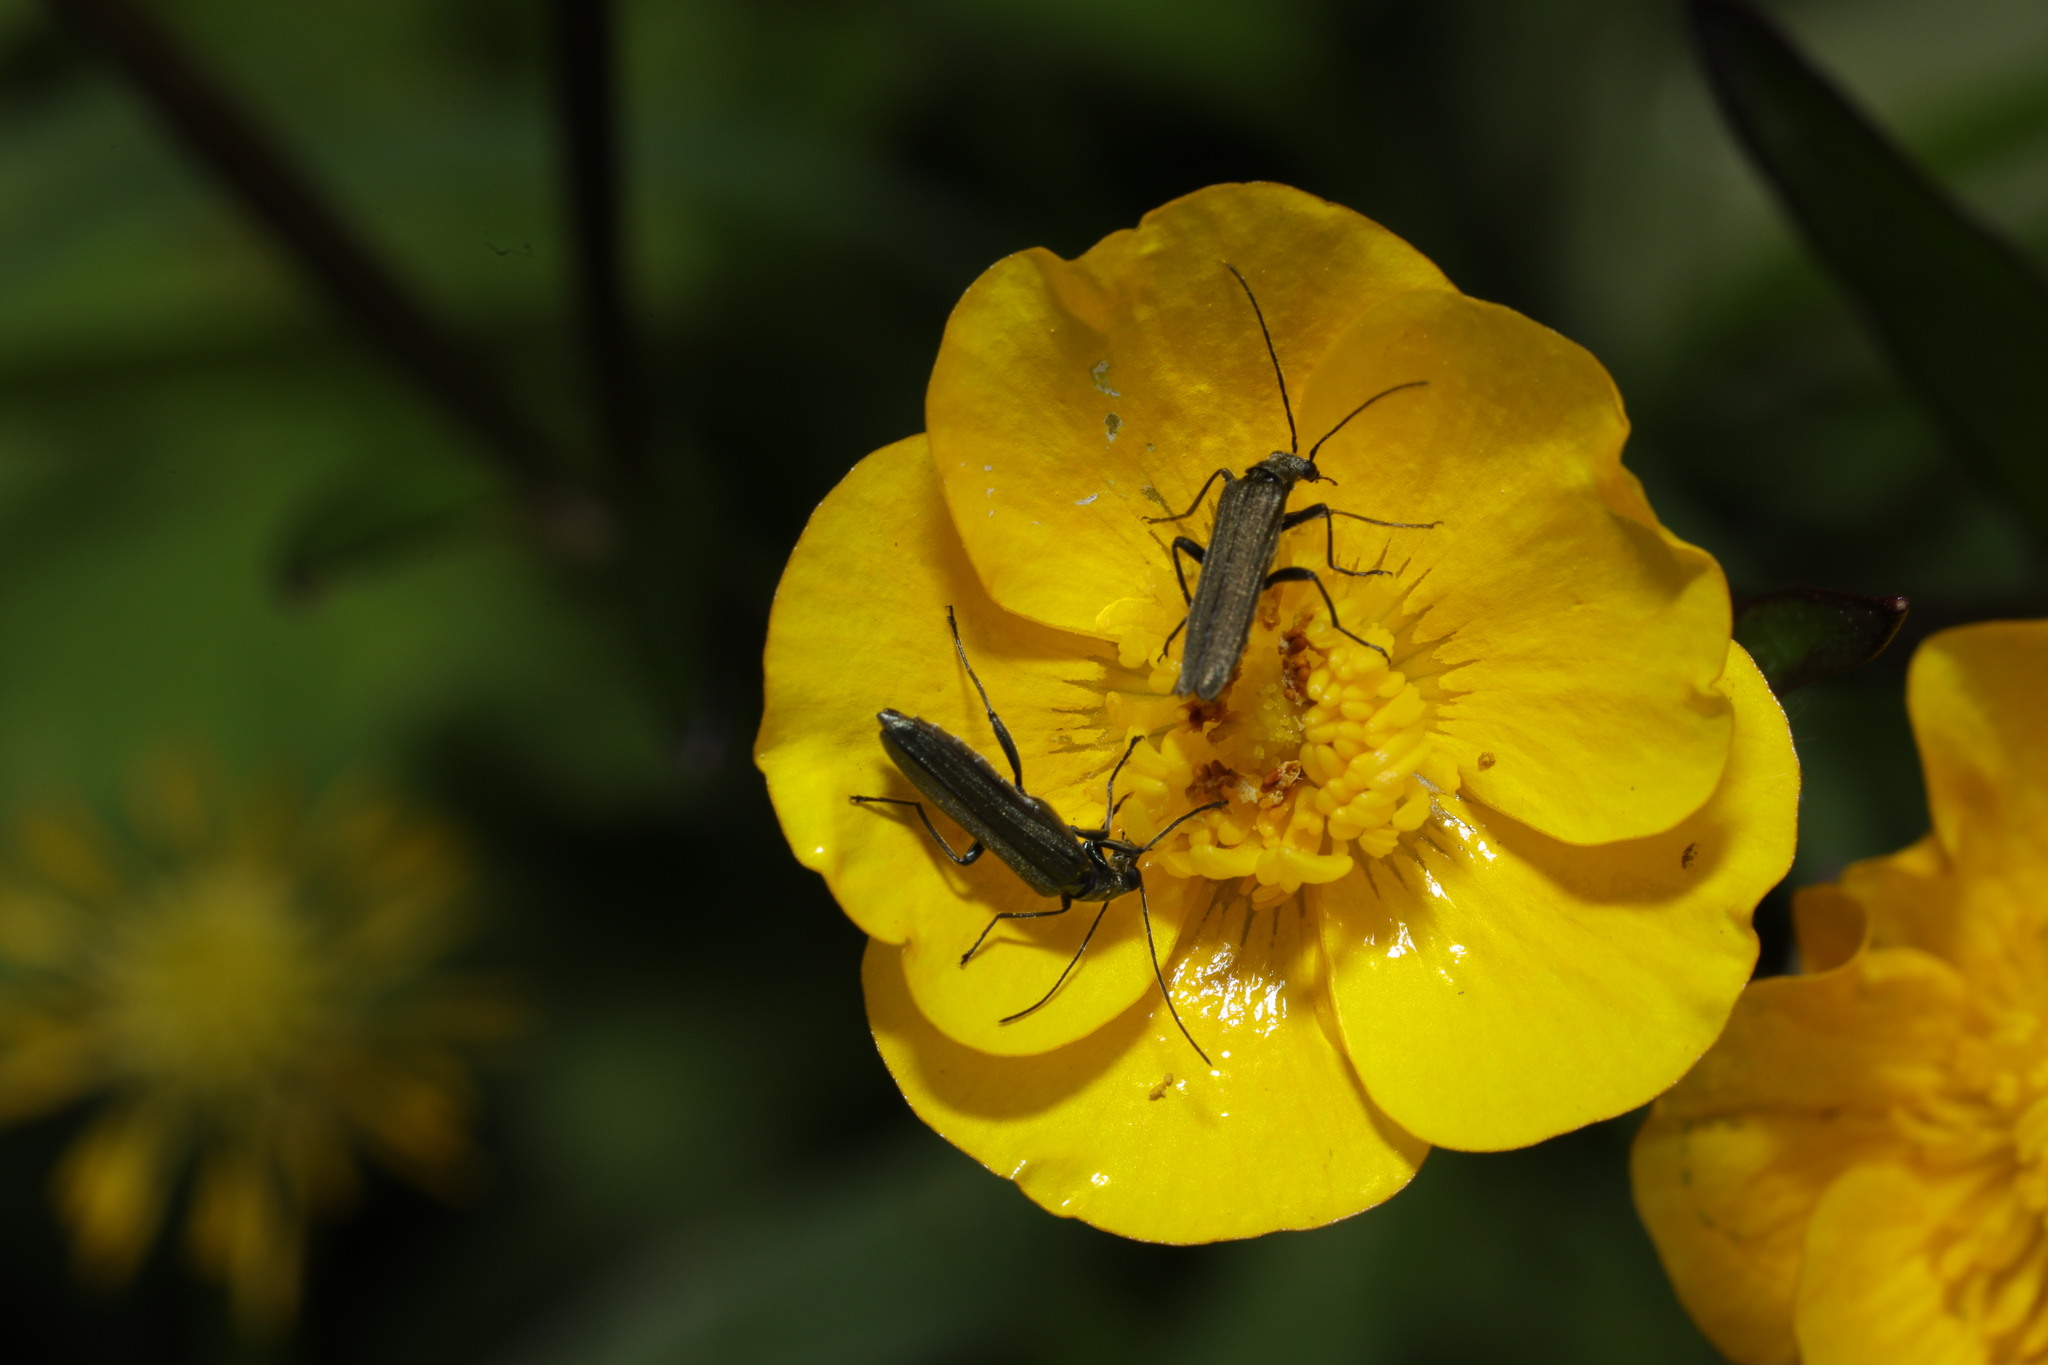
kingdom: Animalia
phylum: Arthropoda
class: Insecta
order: Coleoptera
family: Oedemeridae
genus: Oedemera
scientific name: Oedemera lurida
